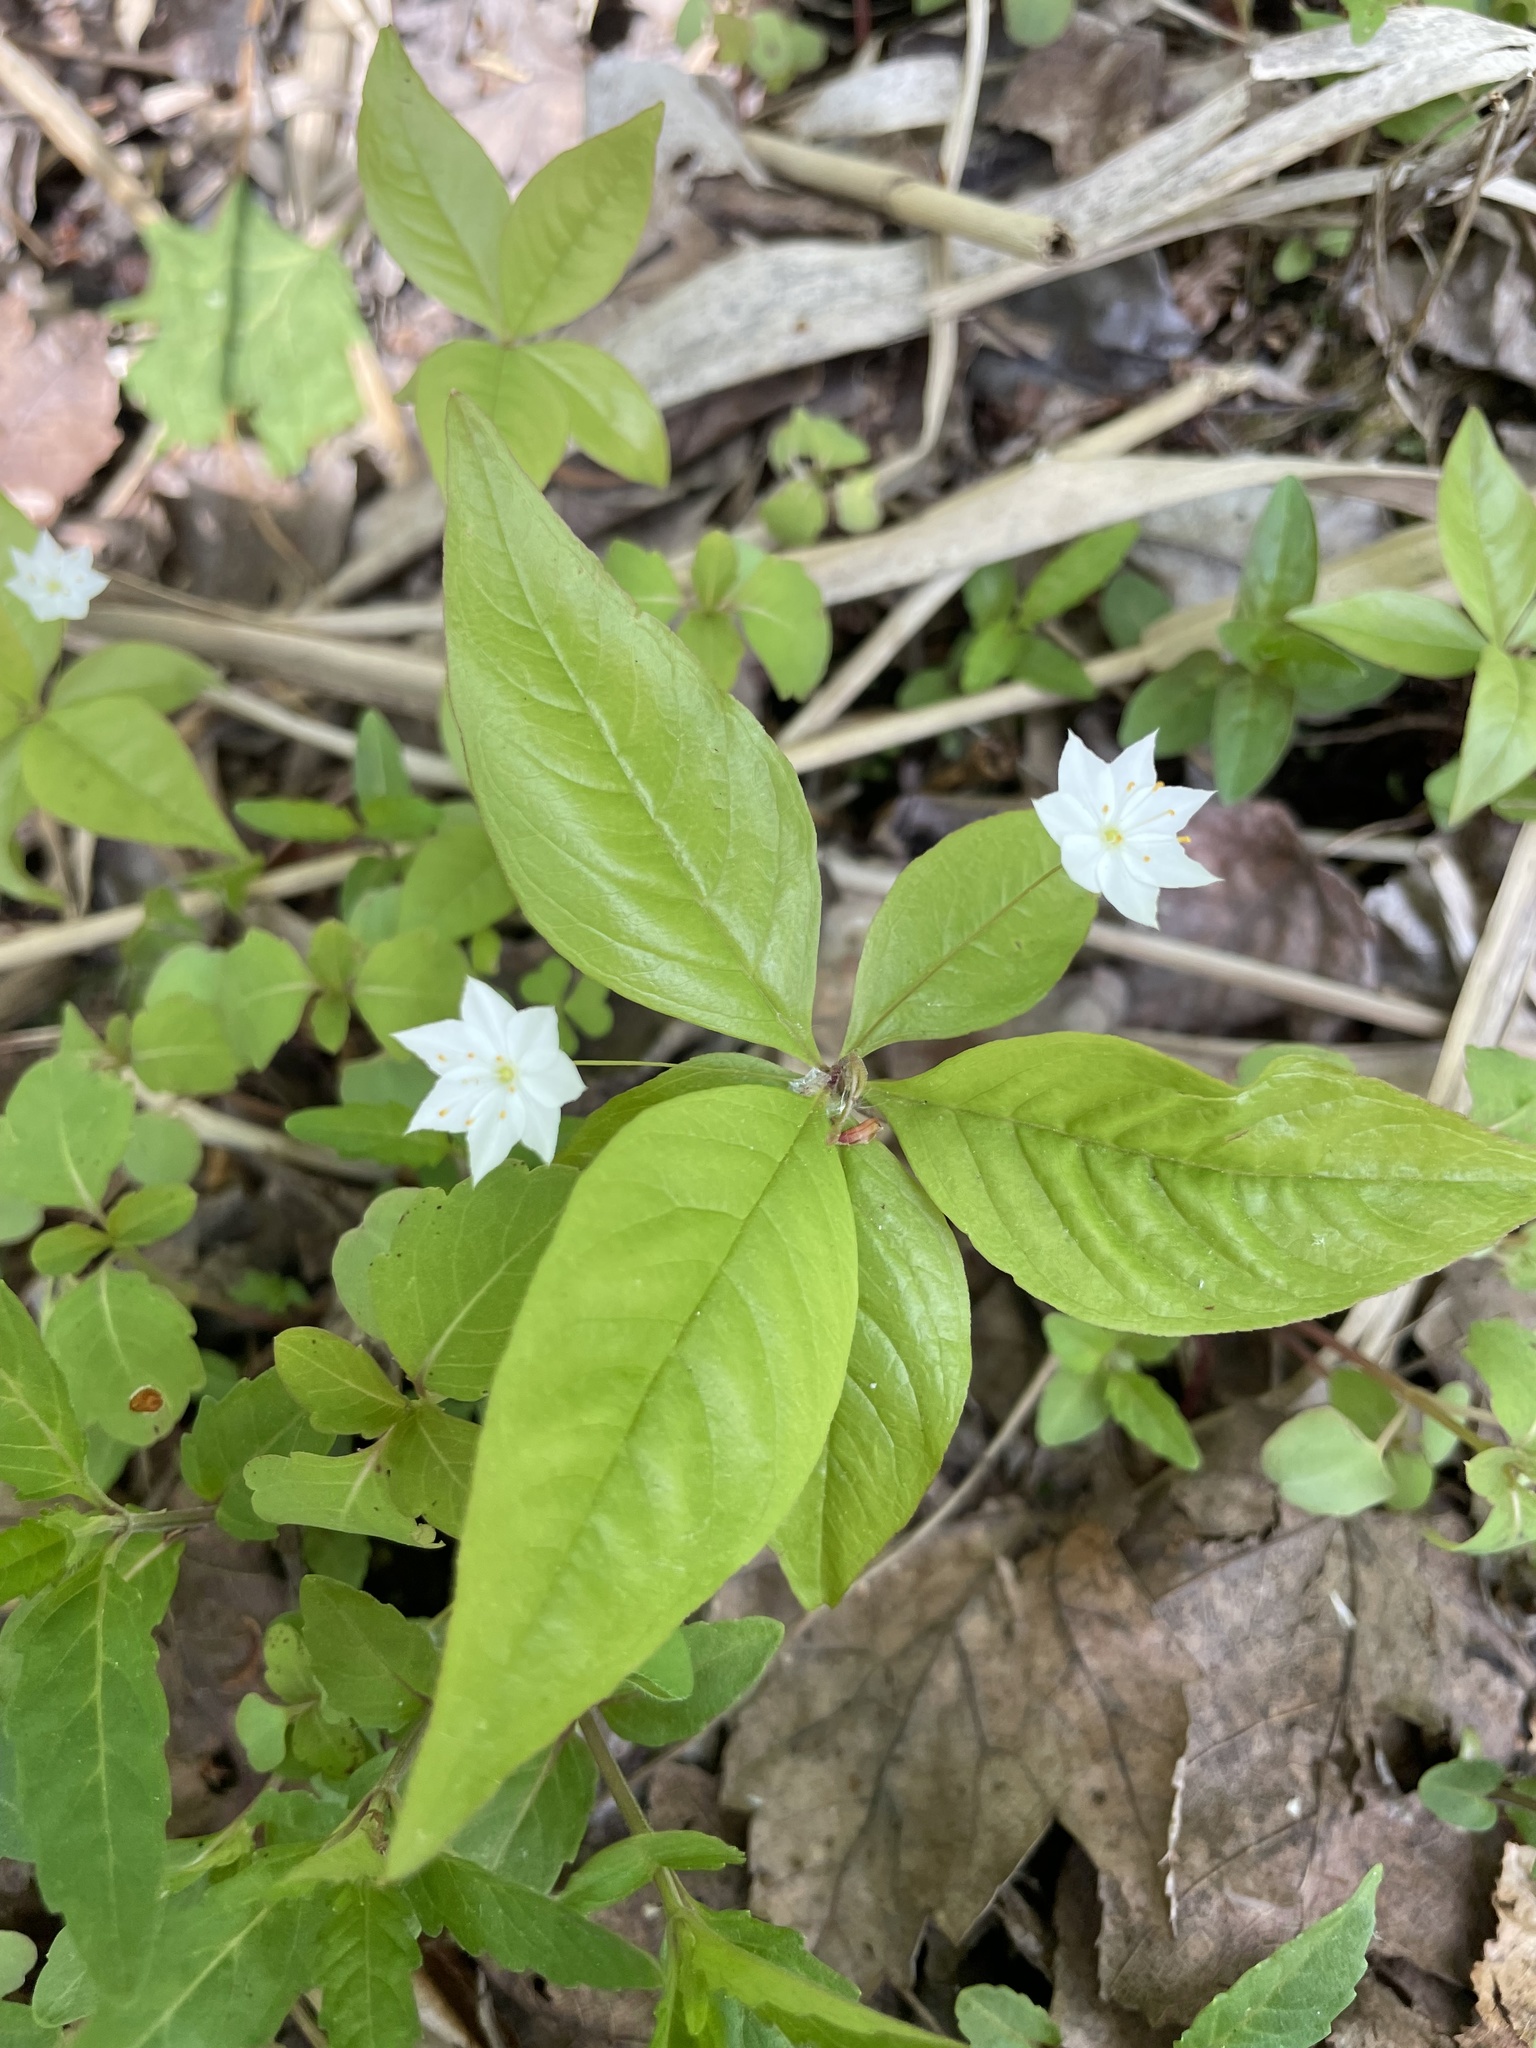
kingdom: Plantae
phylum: Tracheophyta
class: Magnoliopsida
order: Ericales
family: Primulaceae
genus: Lysimachia
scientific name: Lysimachia borealis
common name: American starflower
